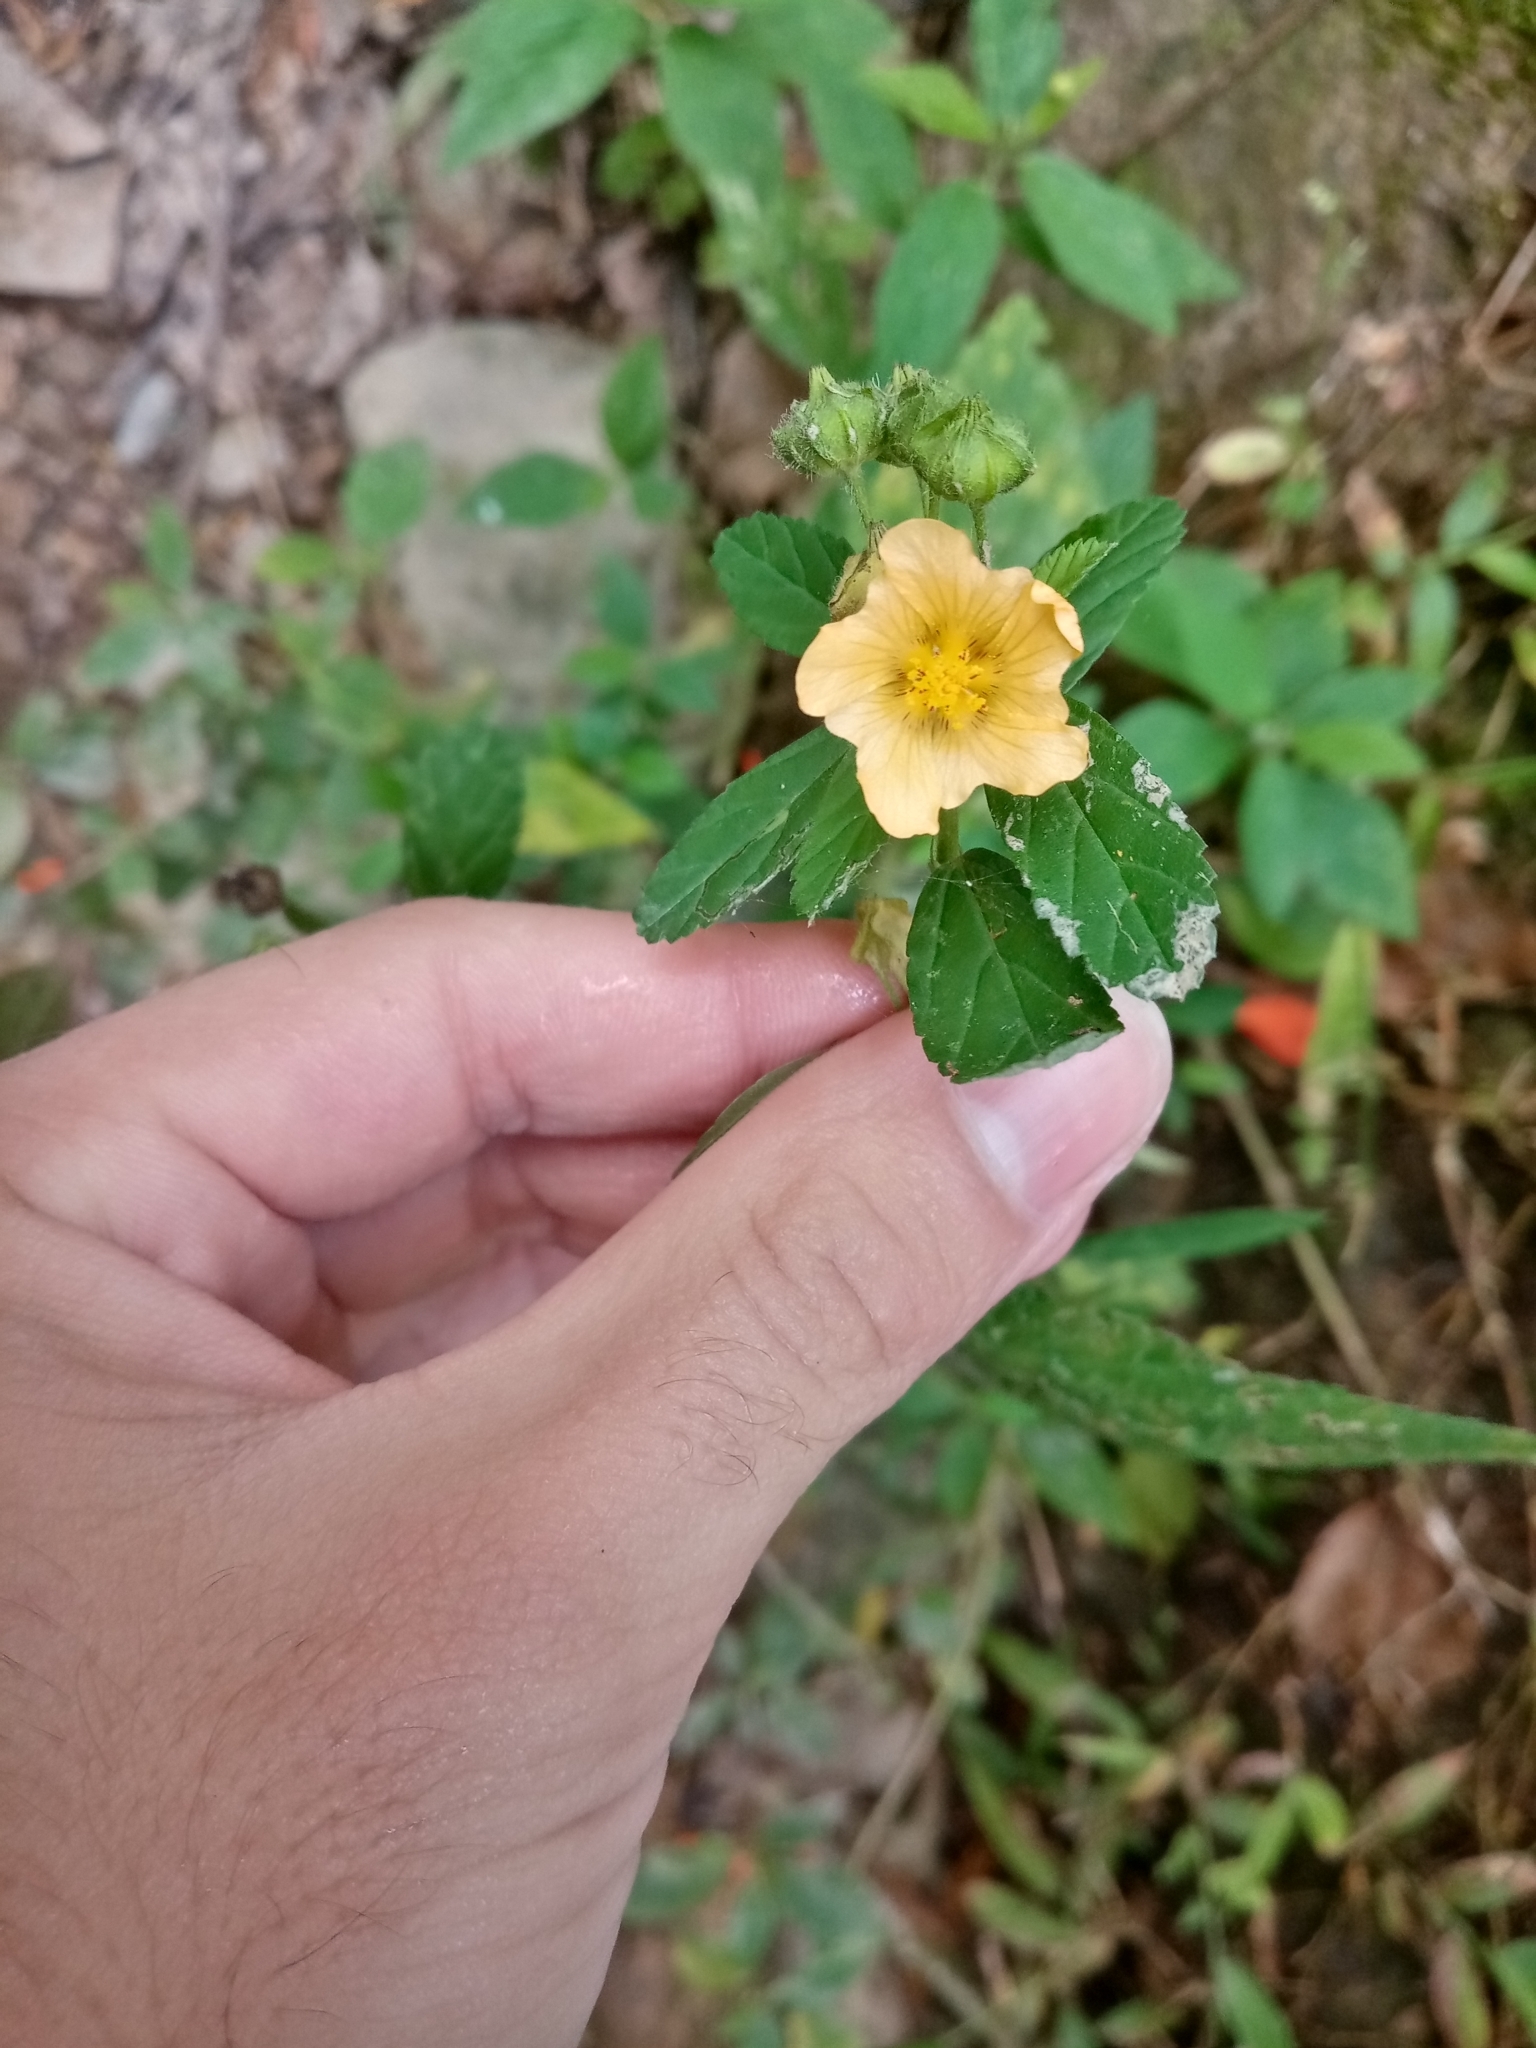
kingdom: Plantae
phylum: Tracheophyta
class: Magnoliopsida
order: Malvales
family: Malvaceae
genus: Sida
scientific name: Sida acuta
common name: Common wireweed
